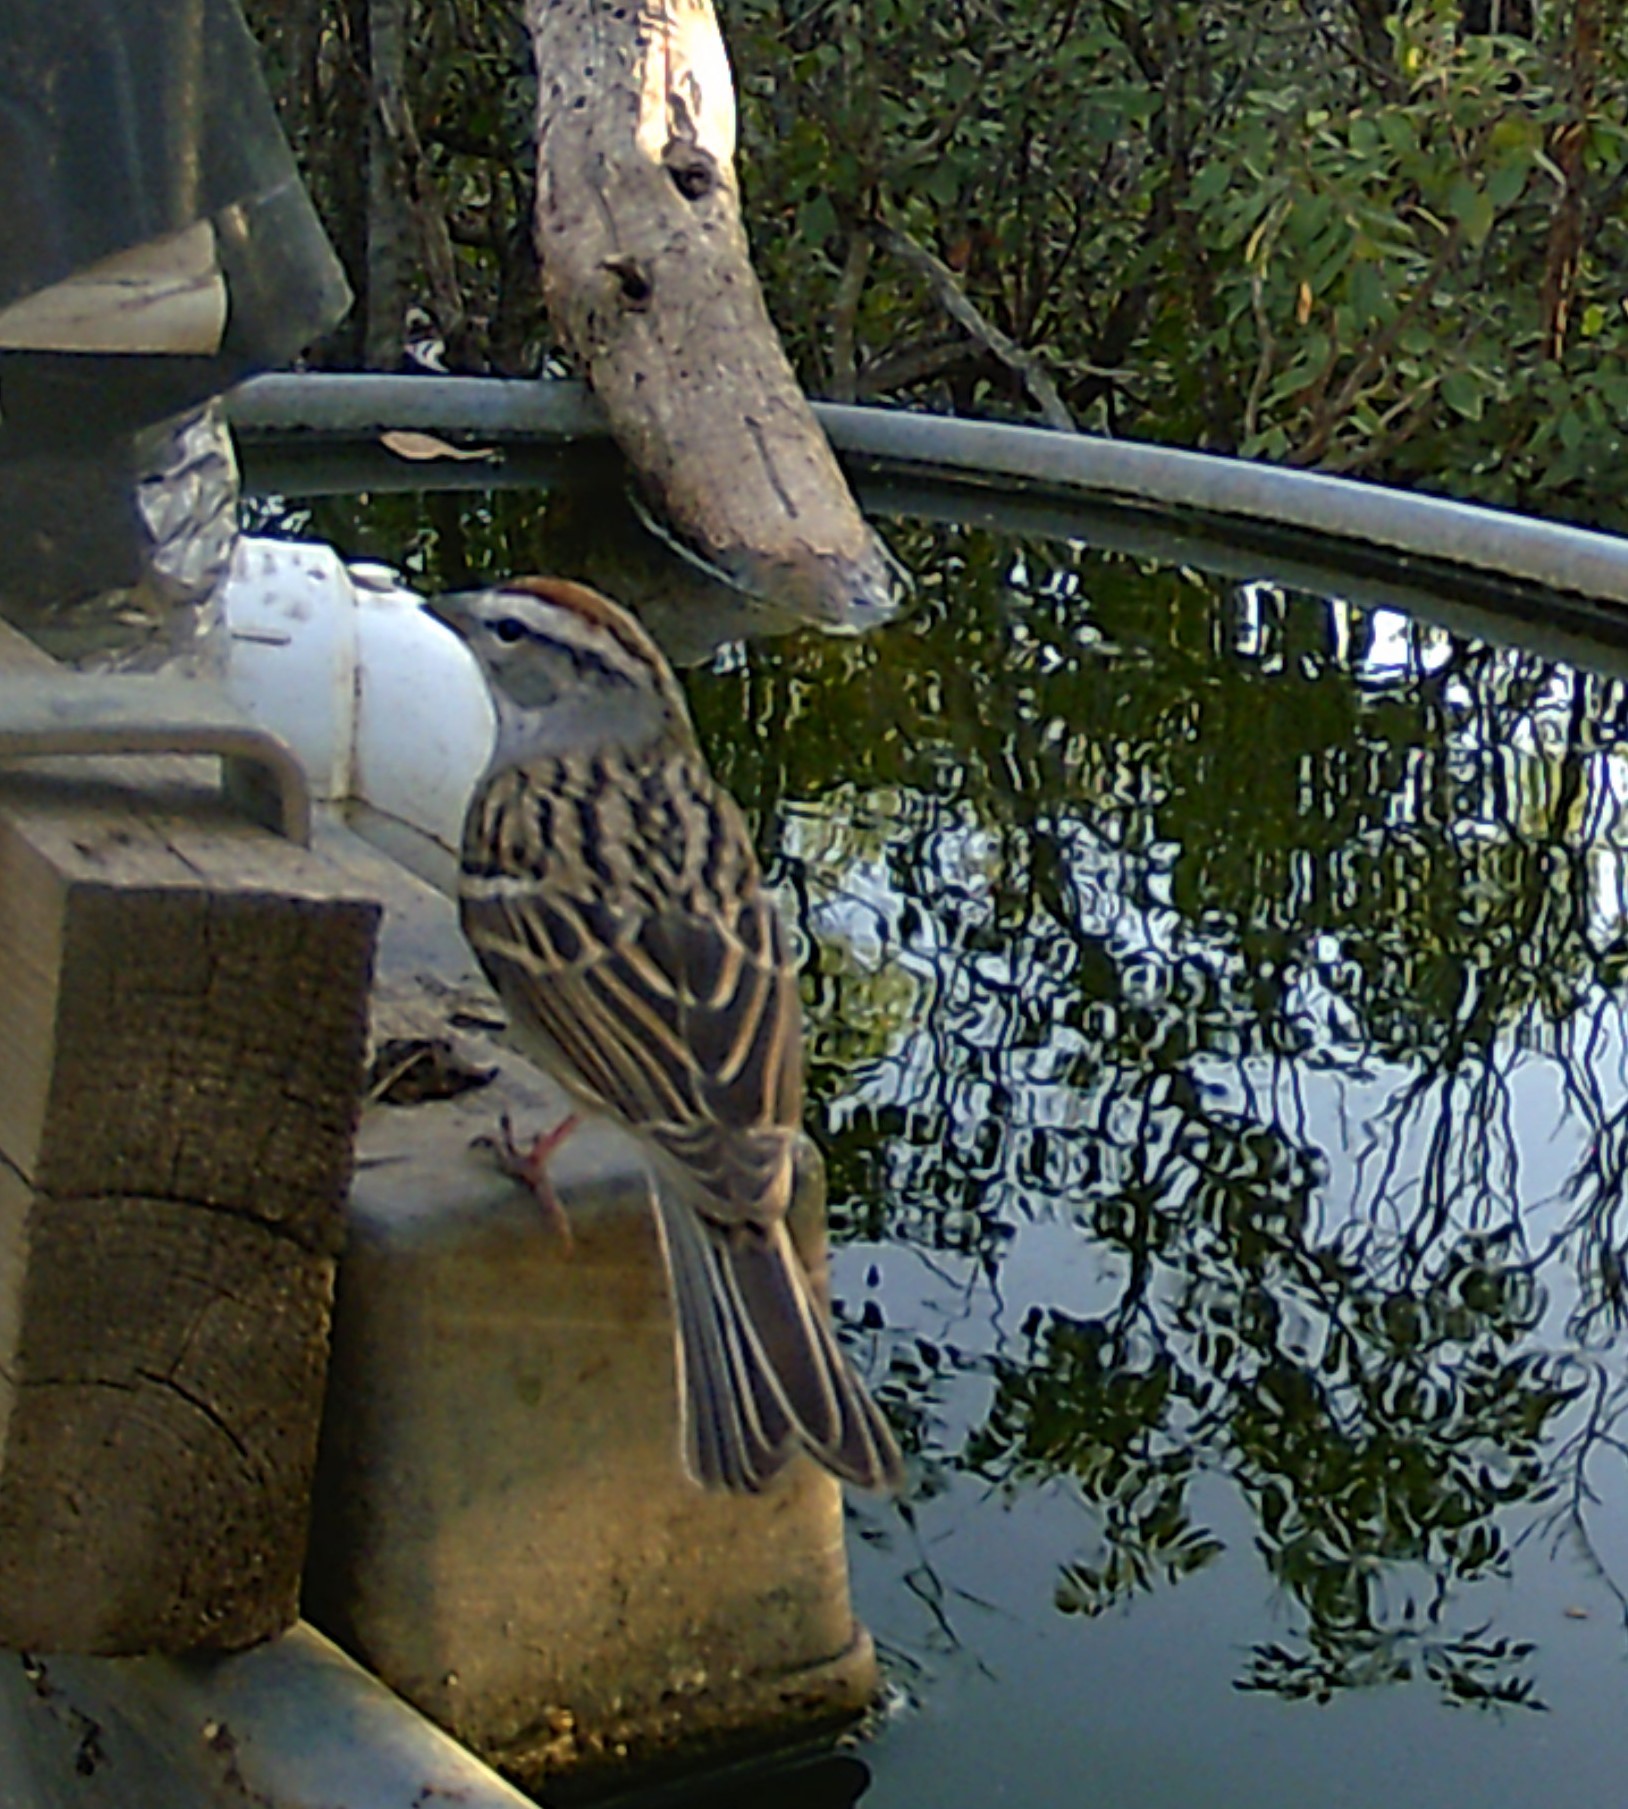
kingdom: Animalia
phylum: Chordata
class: Aves
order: Passeriformes
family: Passerellidae
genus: Spizella
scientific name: Spizella passerina
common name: Chipping sparrow
